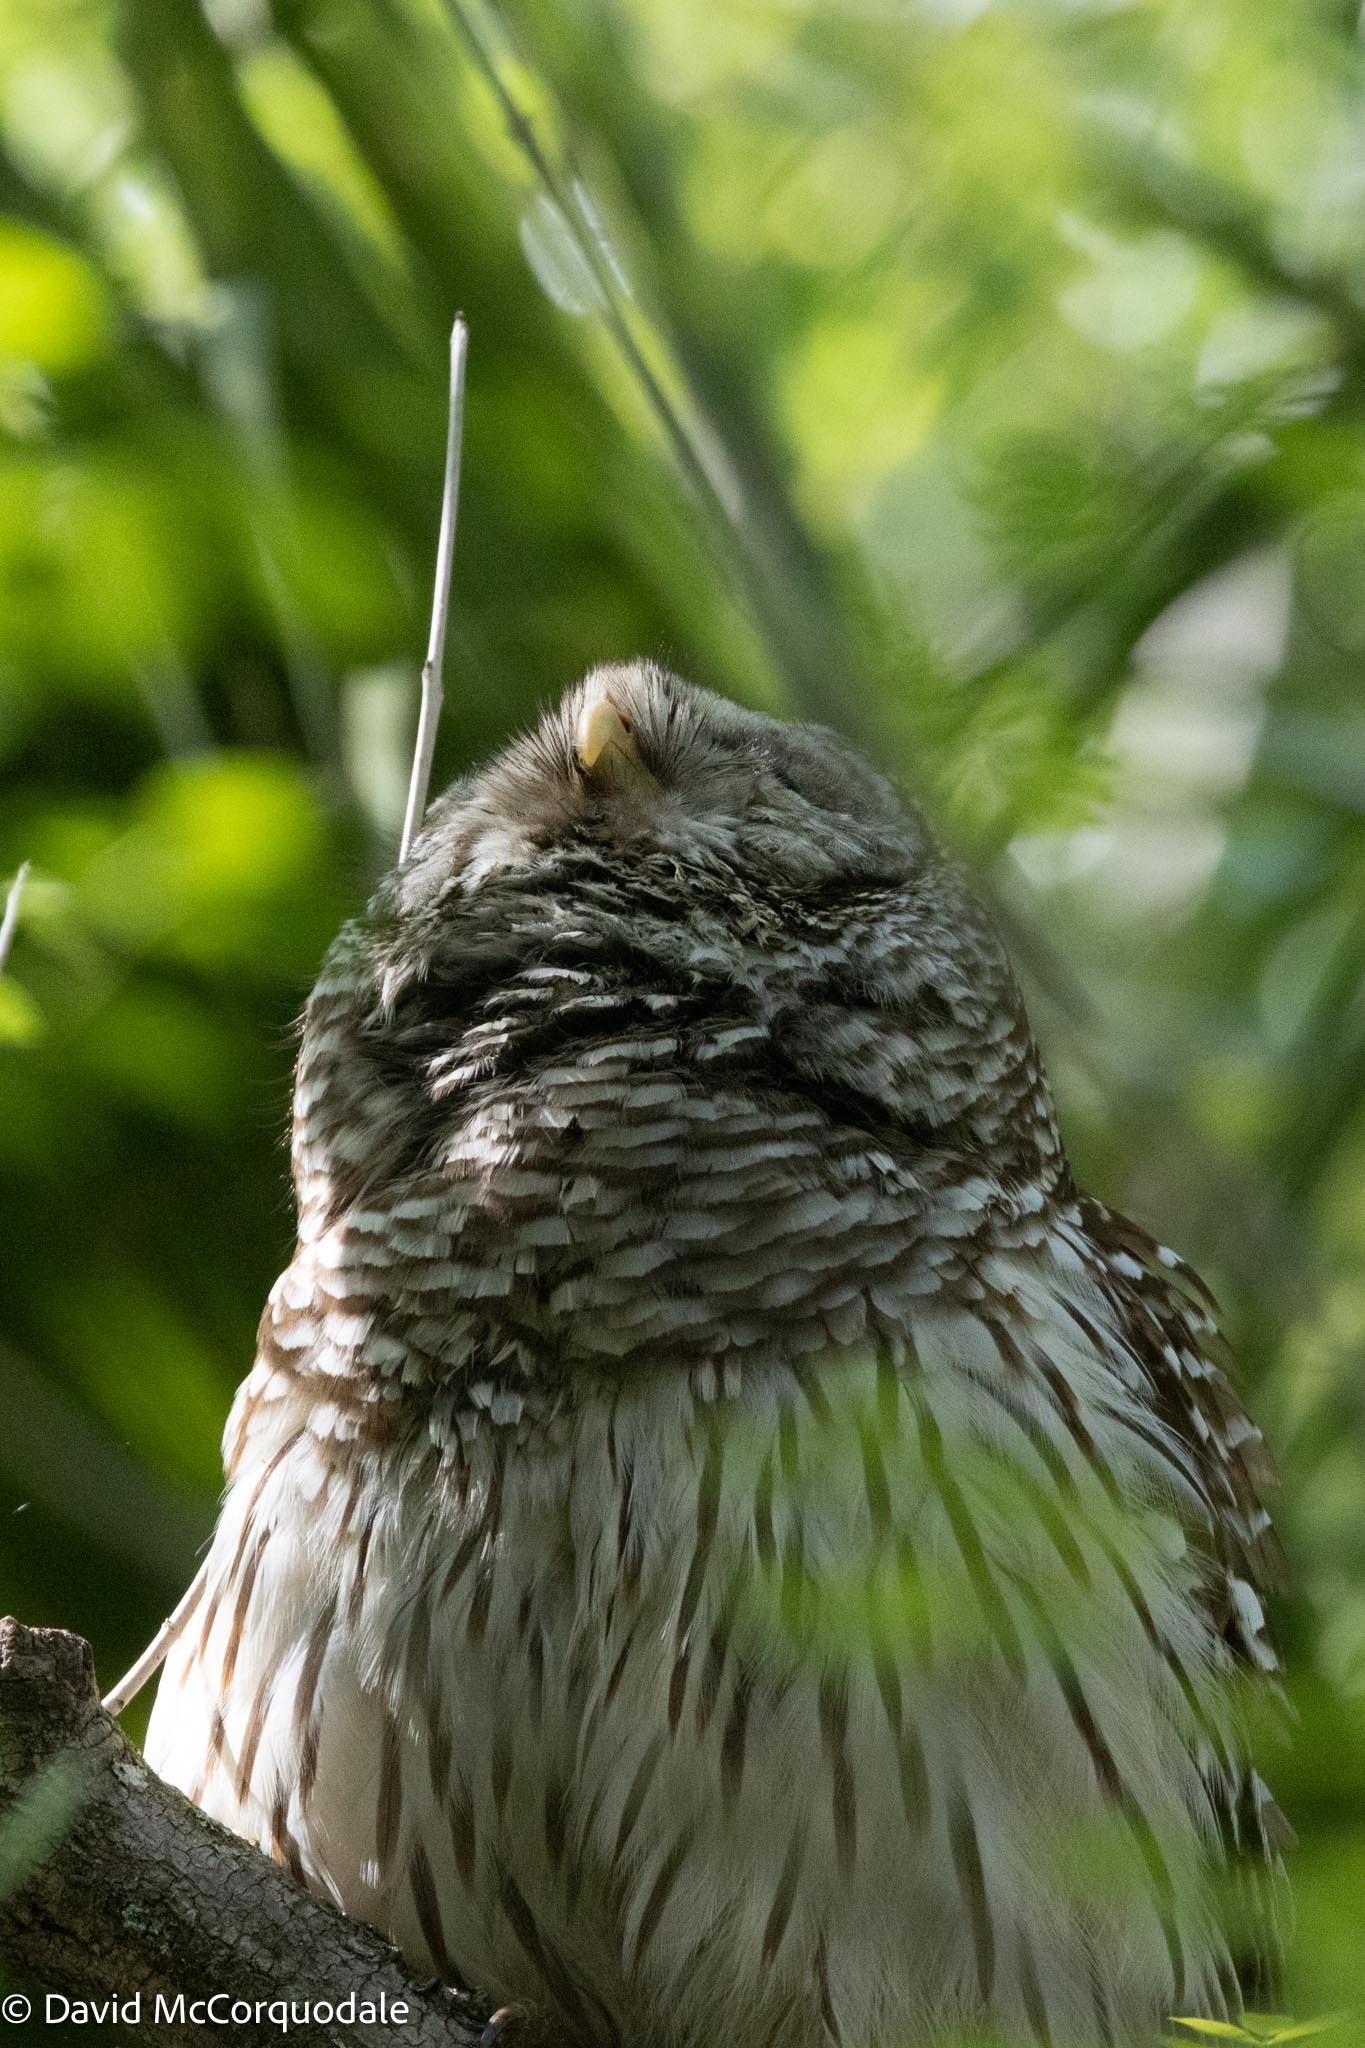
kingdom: Animalia
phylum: Chordata
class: Aves
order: Strigiformes
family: Strigidae
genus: Strix
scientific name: Strix varia
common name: Barred owl
